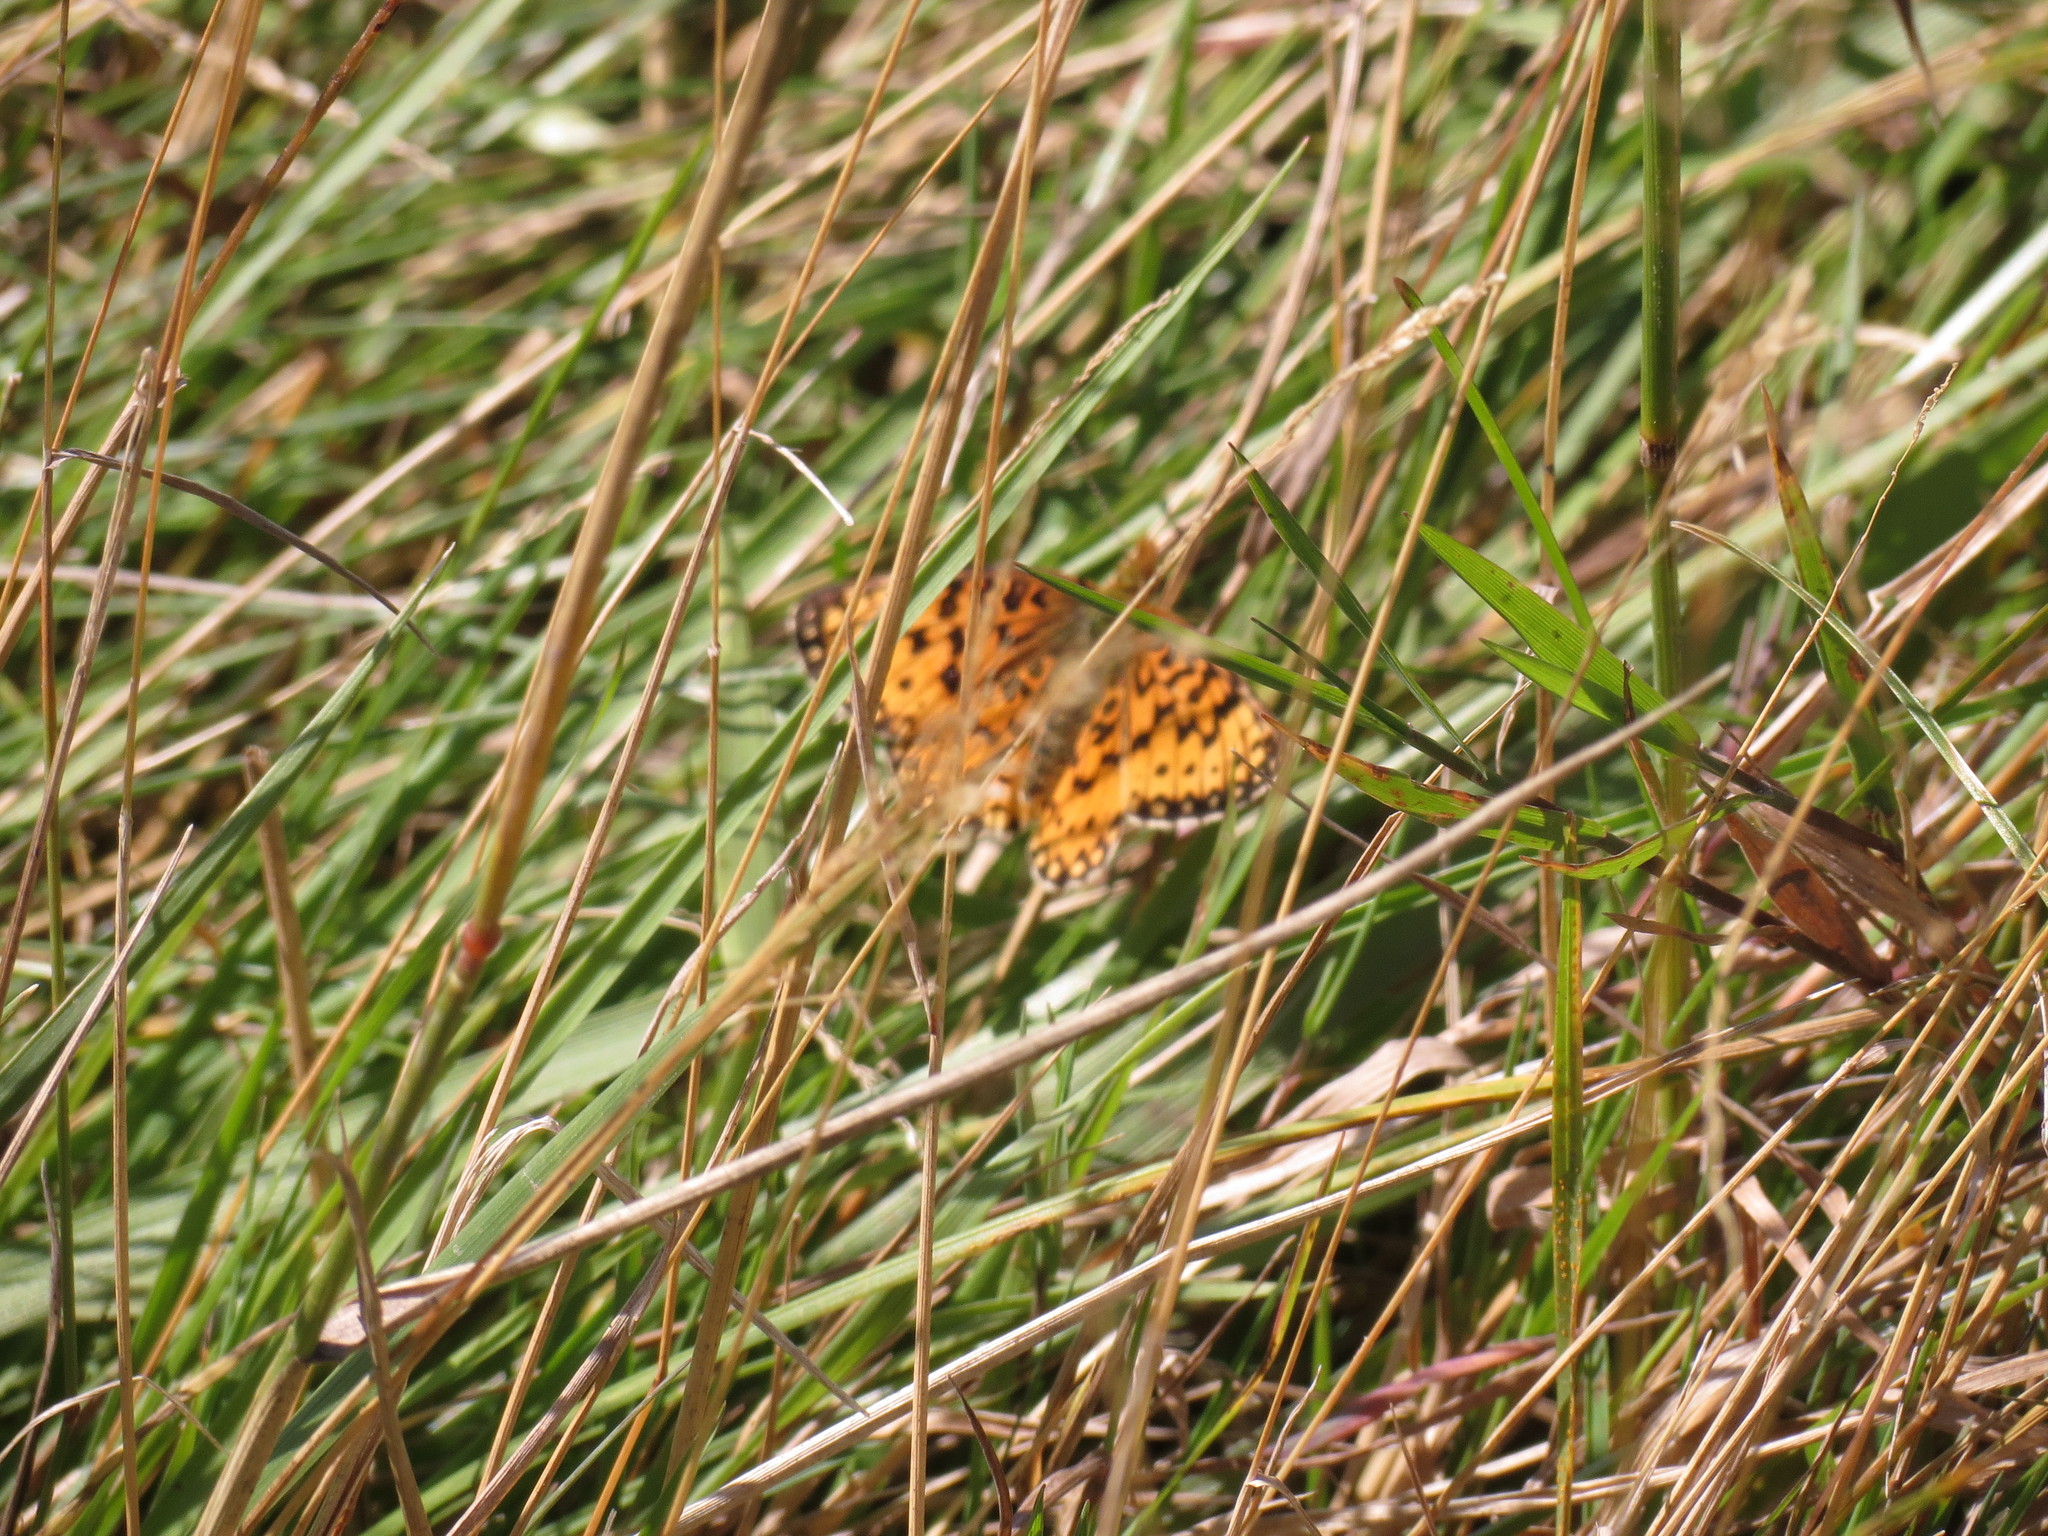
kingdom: Animalia
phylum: Arthropoda
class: Insecta
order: Lepidoptera
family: Nymphalidae
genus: Boloria
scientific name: Boloria
